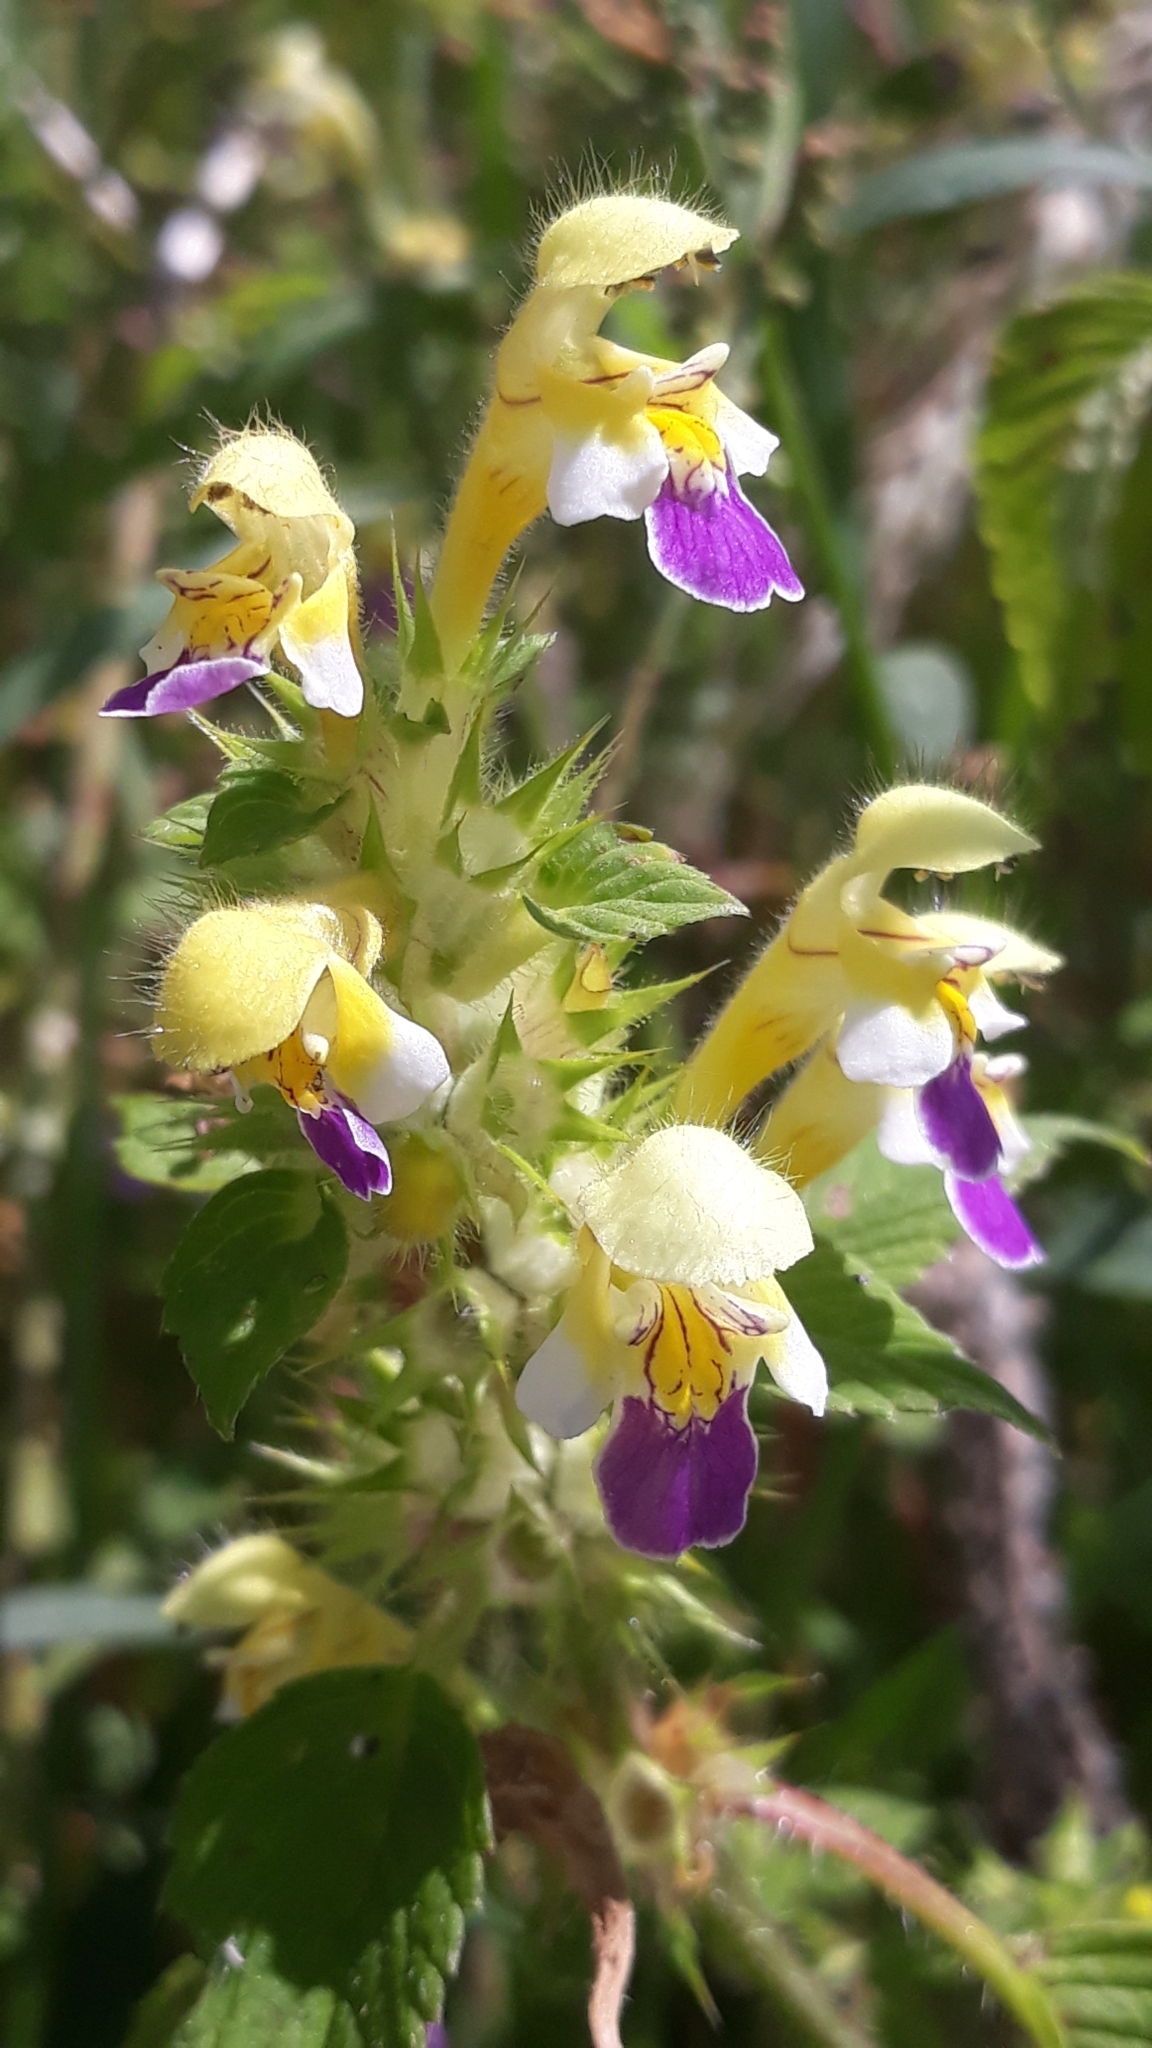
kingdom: Plantae
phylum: Tracheophyta
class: Magnoliopsida
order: Lamiales
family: Lamiaceae
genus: Galeopsis
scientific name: Galeopsis speciosa
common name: Large-flowered hemp-nettle
